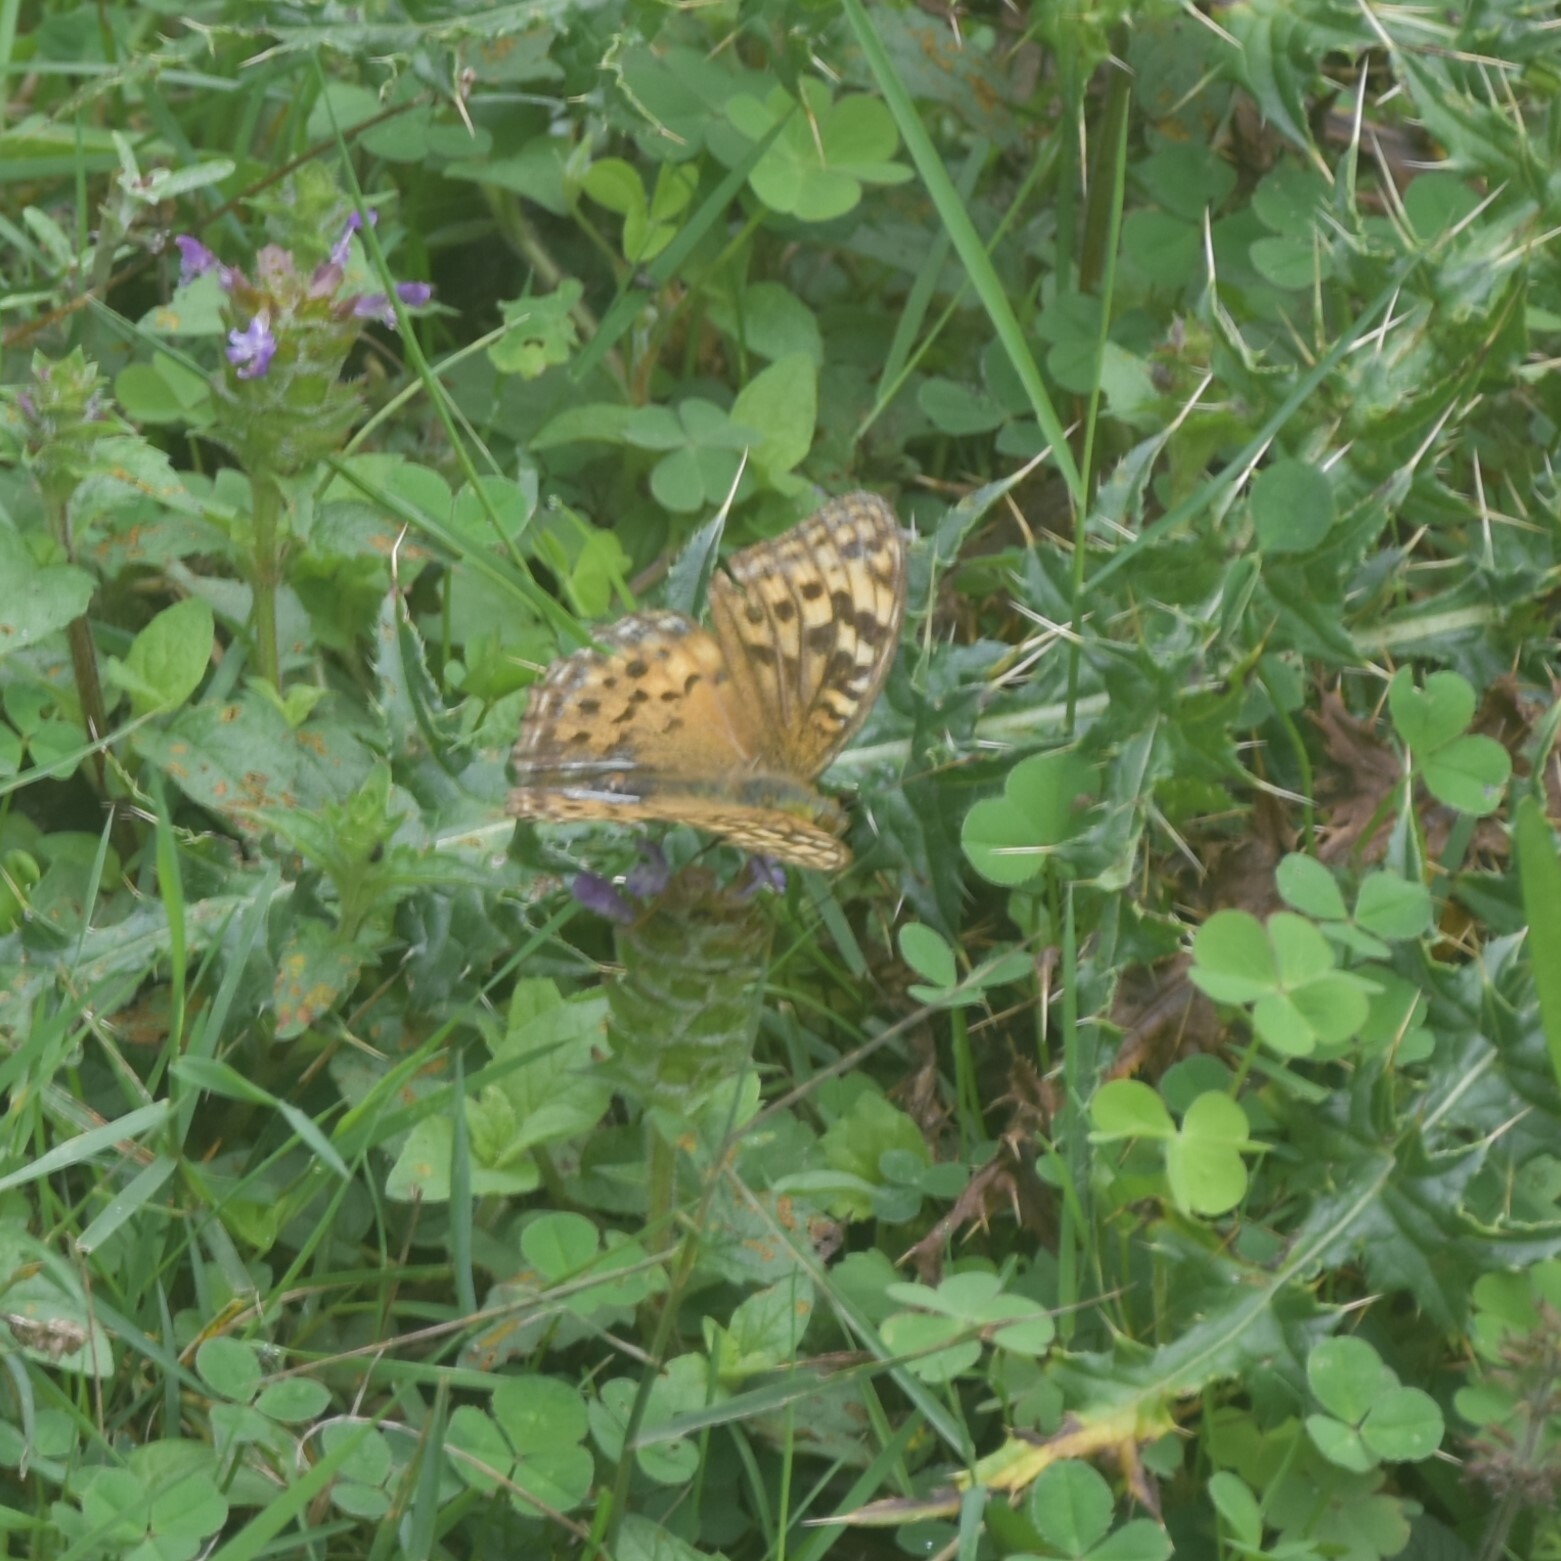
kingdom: Animalia
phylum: Arthropoda
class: Insecta
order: Lepidoptera
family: Nymphalidae
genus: Fabriciana
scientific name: Fabriciana kamala
